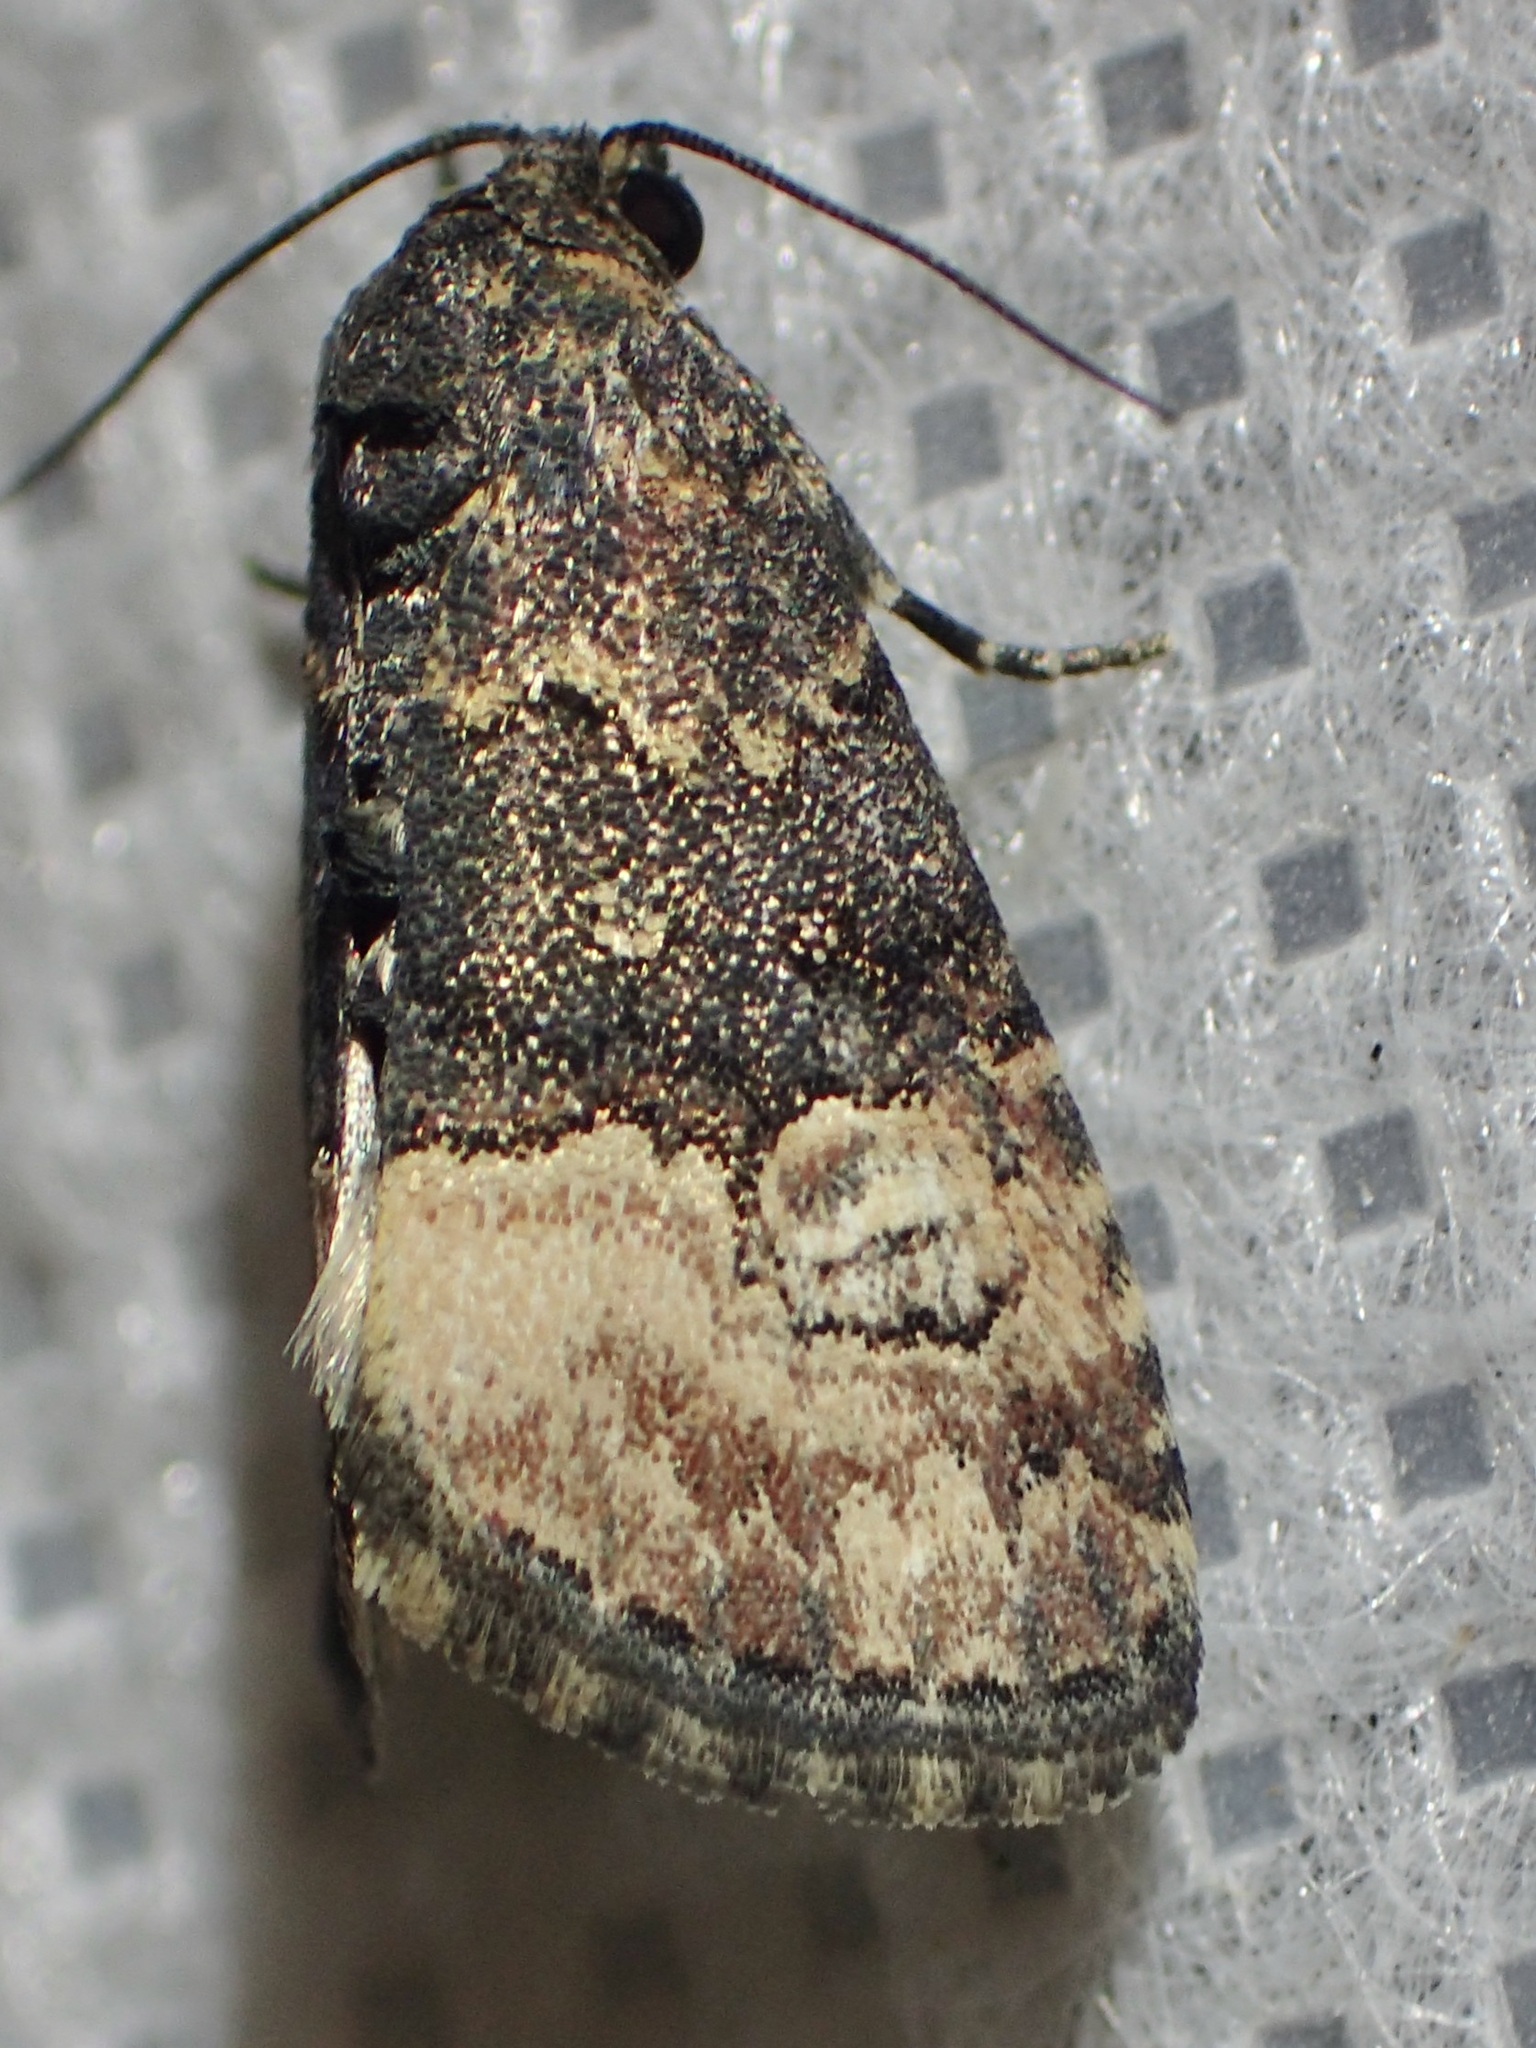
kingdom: Animalia
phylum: Arthropoda
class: Insecta
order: Lepidoptera
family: Noctuidae
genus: Ozarba
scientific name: Ozarba propera
